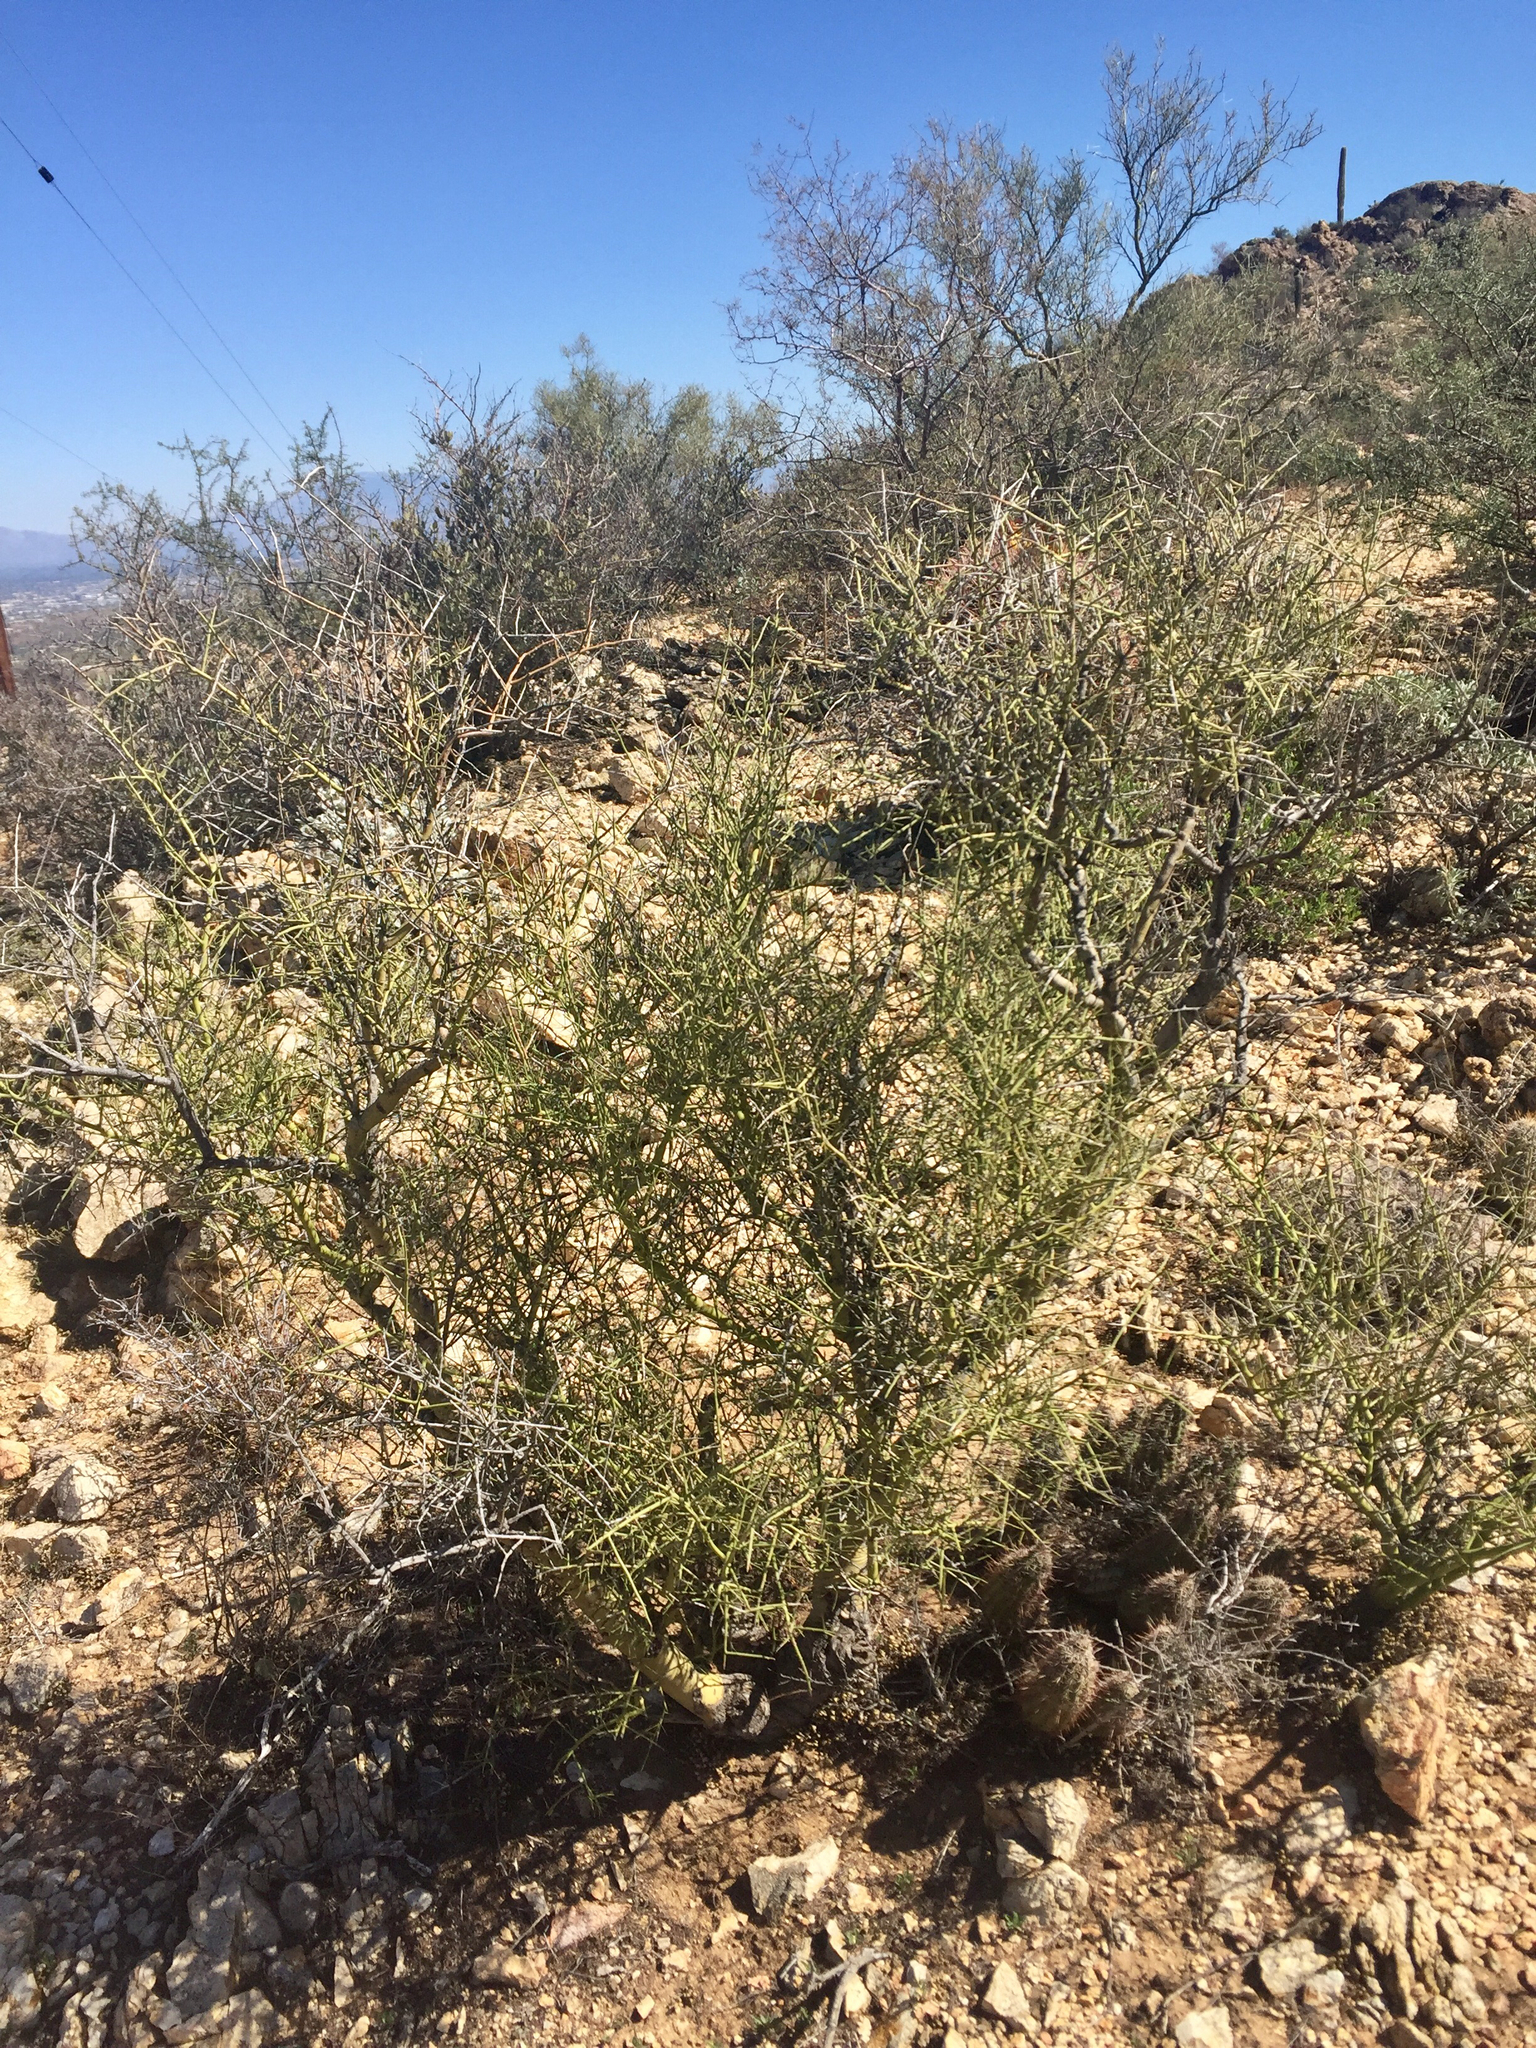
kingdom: Plantae
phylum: Tracheophyta
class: Magnoliopsida
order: Fabales
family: Fabaceae
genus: Parkinsonia
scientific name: Parkinsonia microphylla
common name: Yellow paloverde
